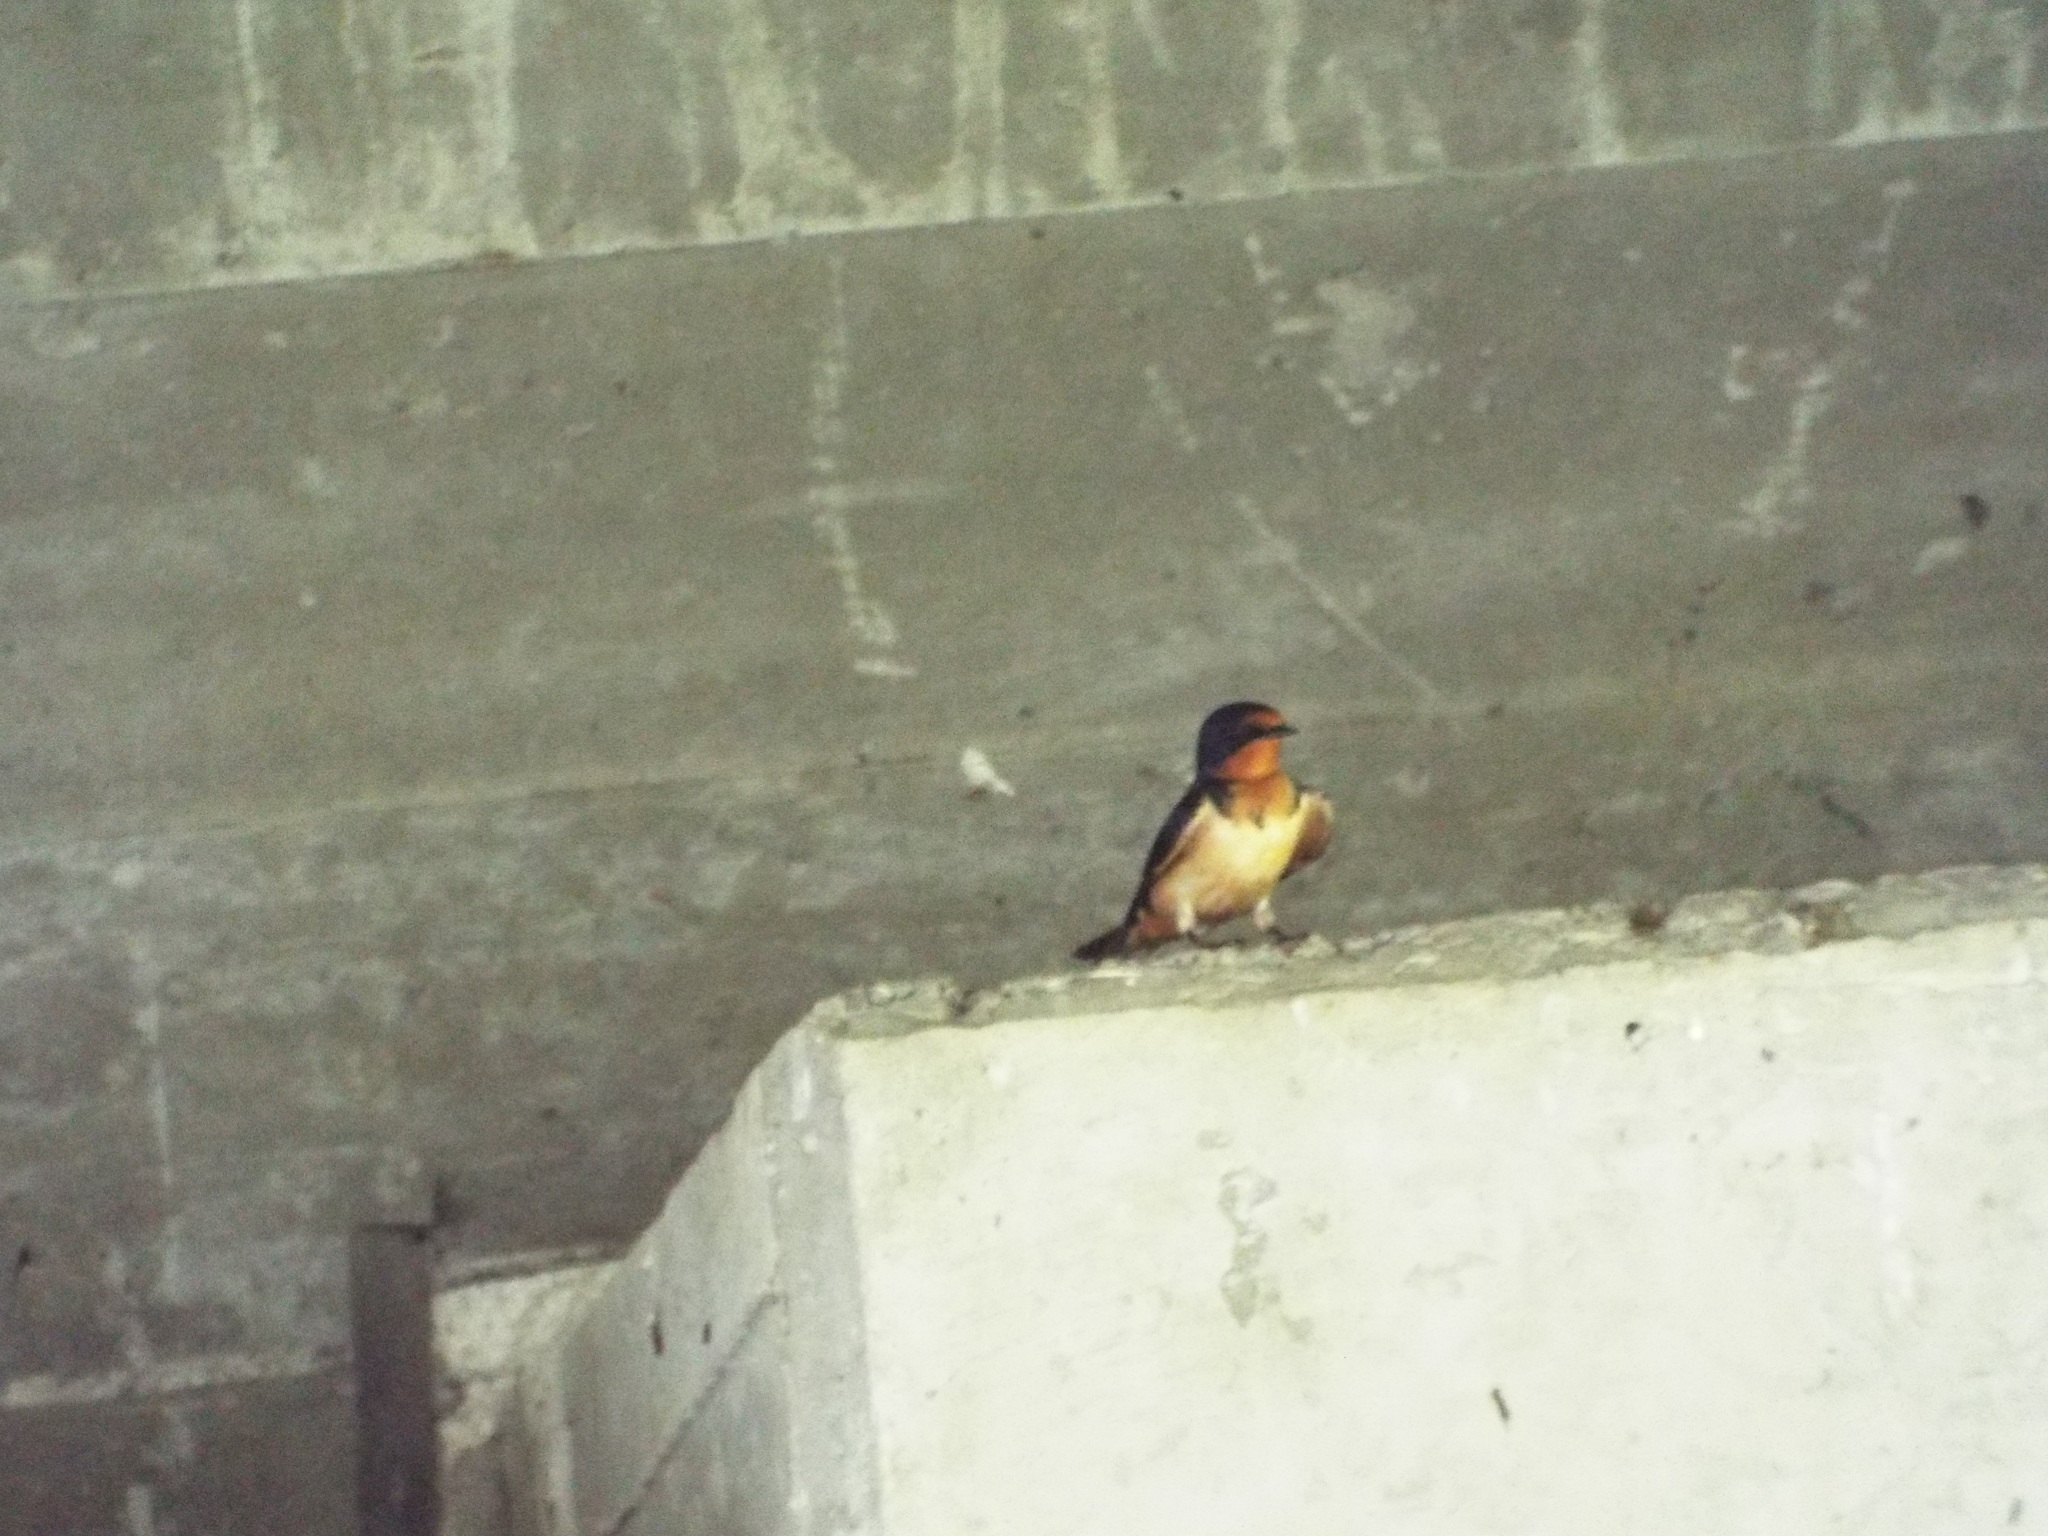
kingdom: Animalia
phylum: Chordata
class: Aves
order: Passeriformes
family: Hirundinidae
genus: Hirundo
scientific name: Hirundo rustica
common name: Barn swallow
